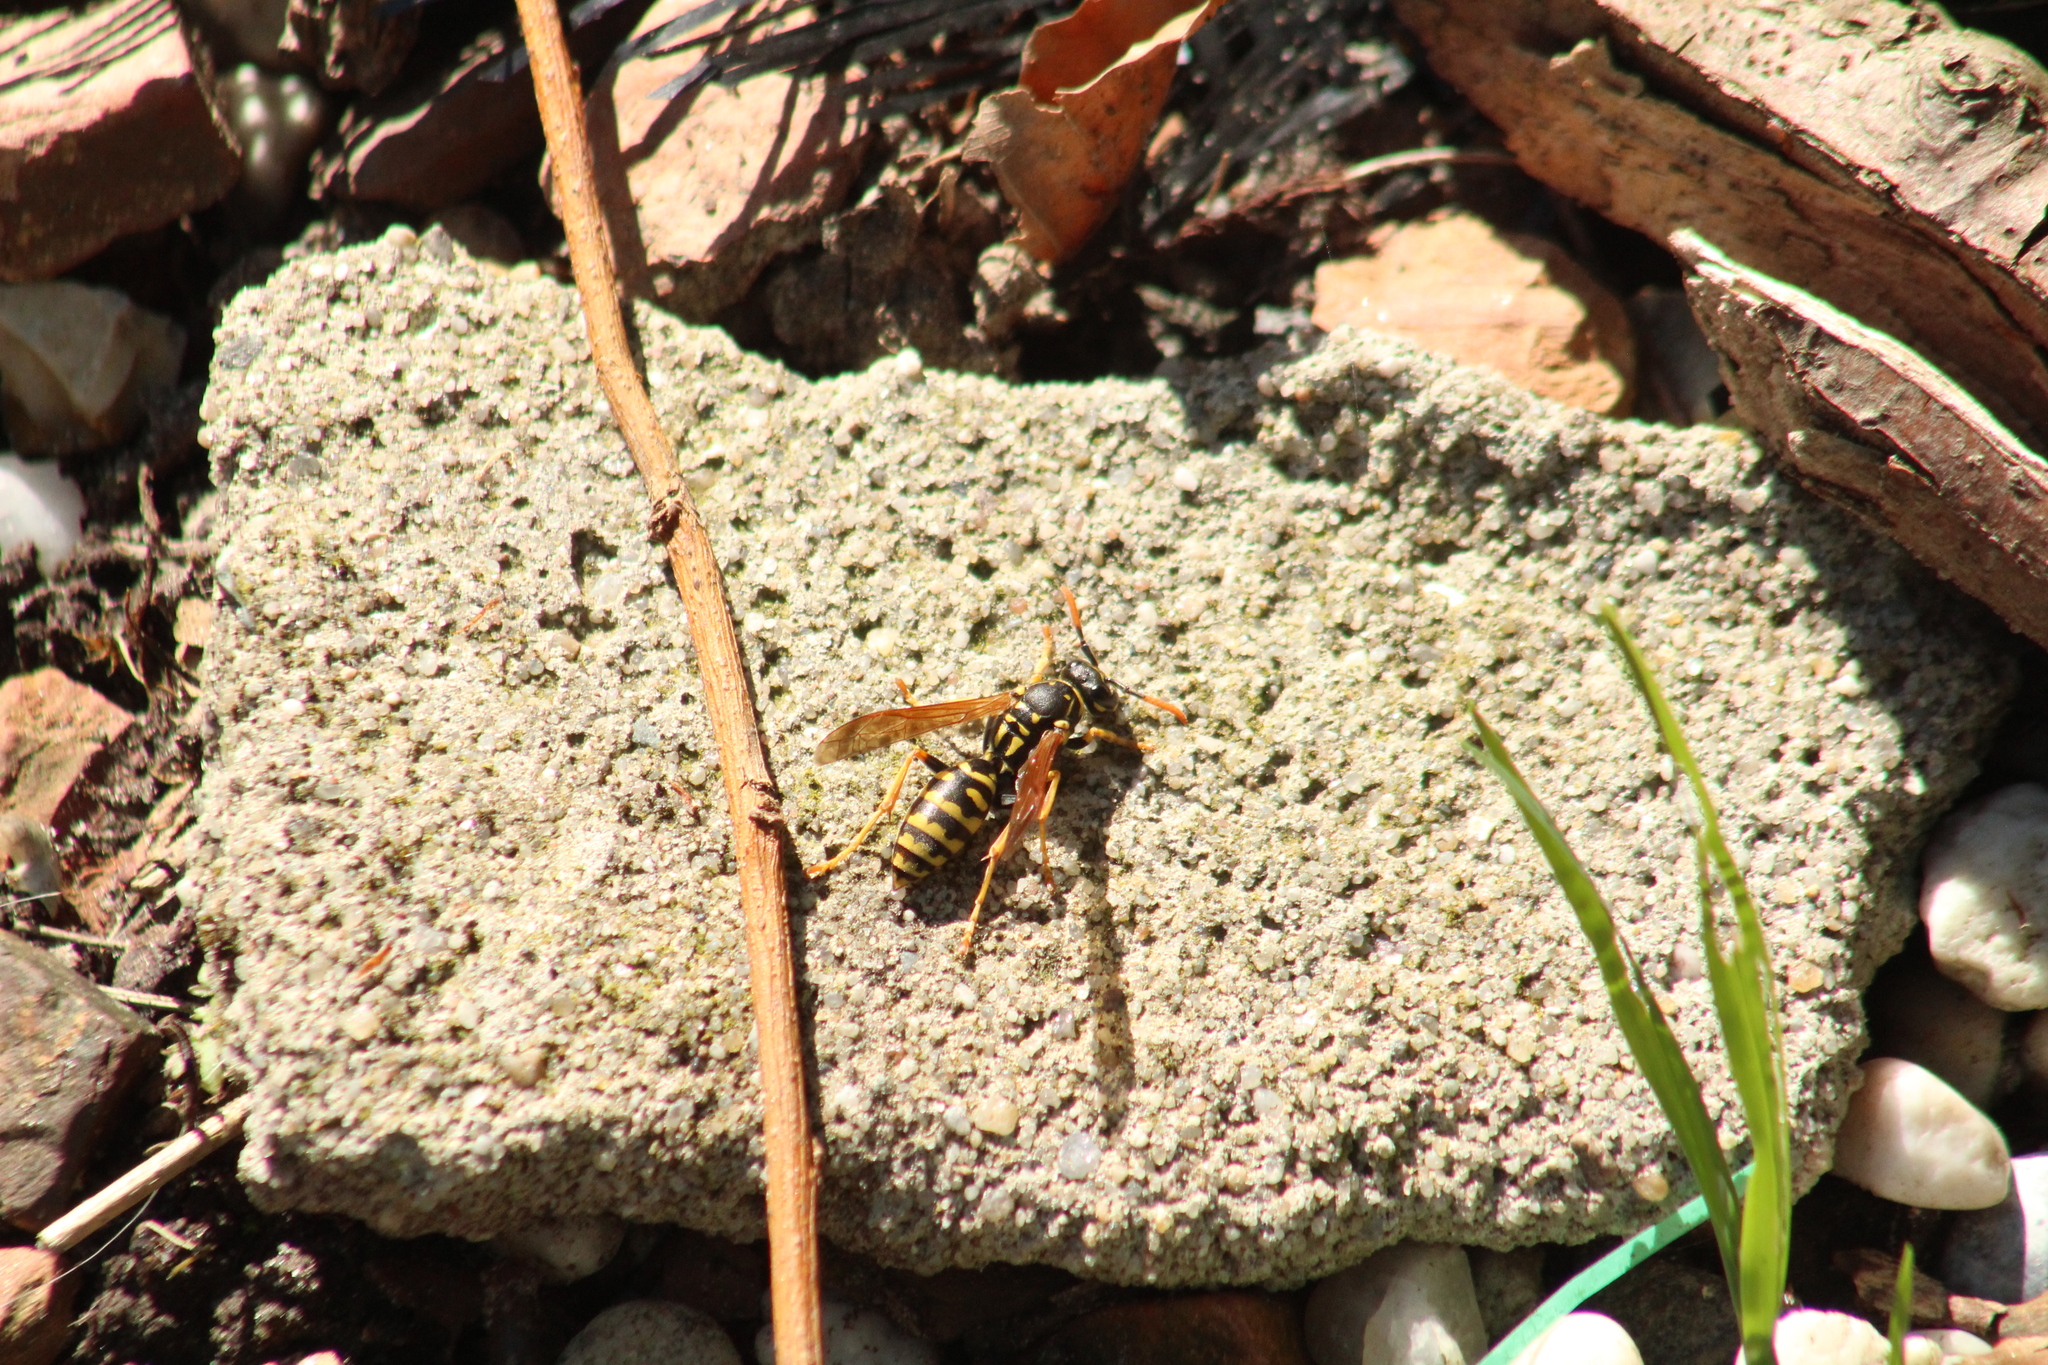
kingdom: Animalia
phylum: Arthropoda
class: Insecta
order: Hymenoptera
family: Eumenidae
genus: Polistes
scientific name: Polistes dominula
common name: Paper wasp
